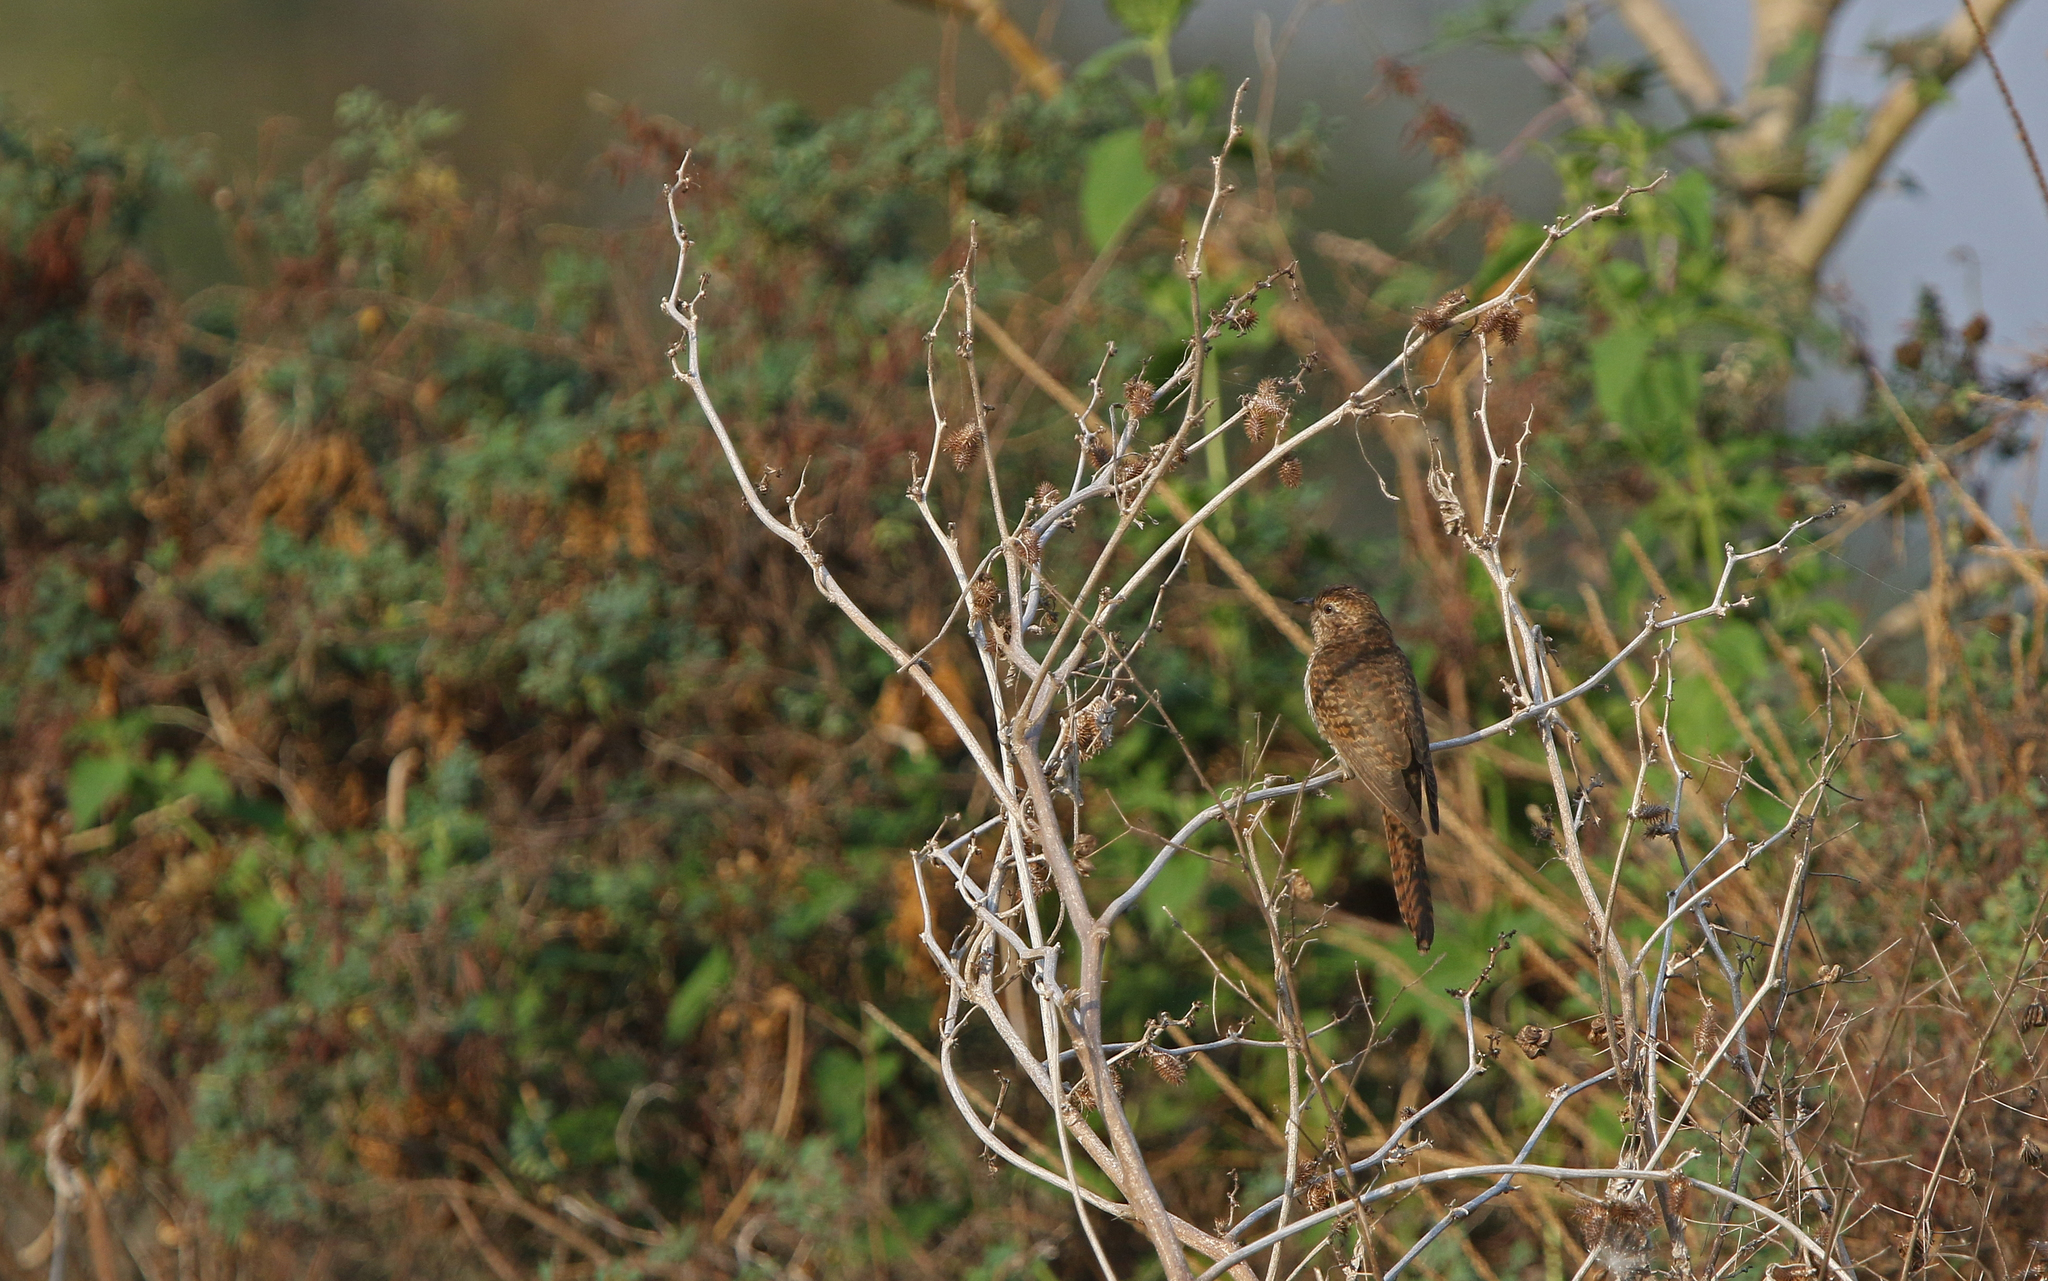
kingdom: Animalia
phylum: Chordata
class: Aves
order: Cuculiformes
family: Cuculidae
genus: Cacomantis
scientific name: Cacomantis merulinus
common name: Plaintive cuckoo
